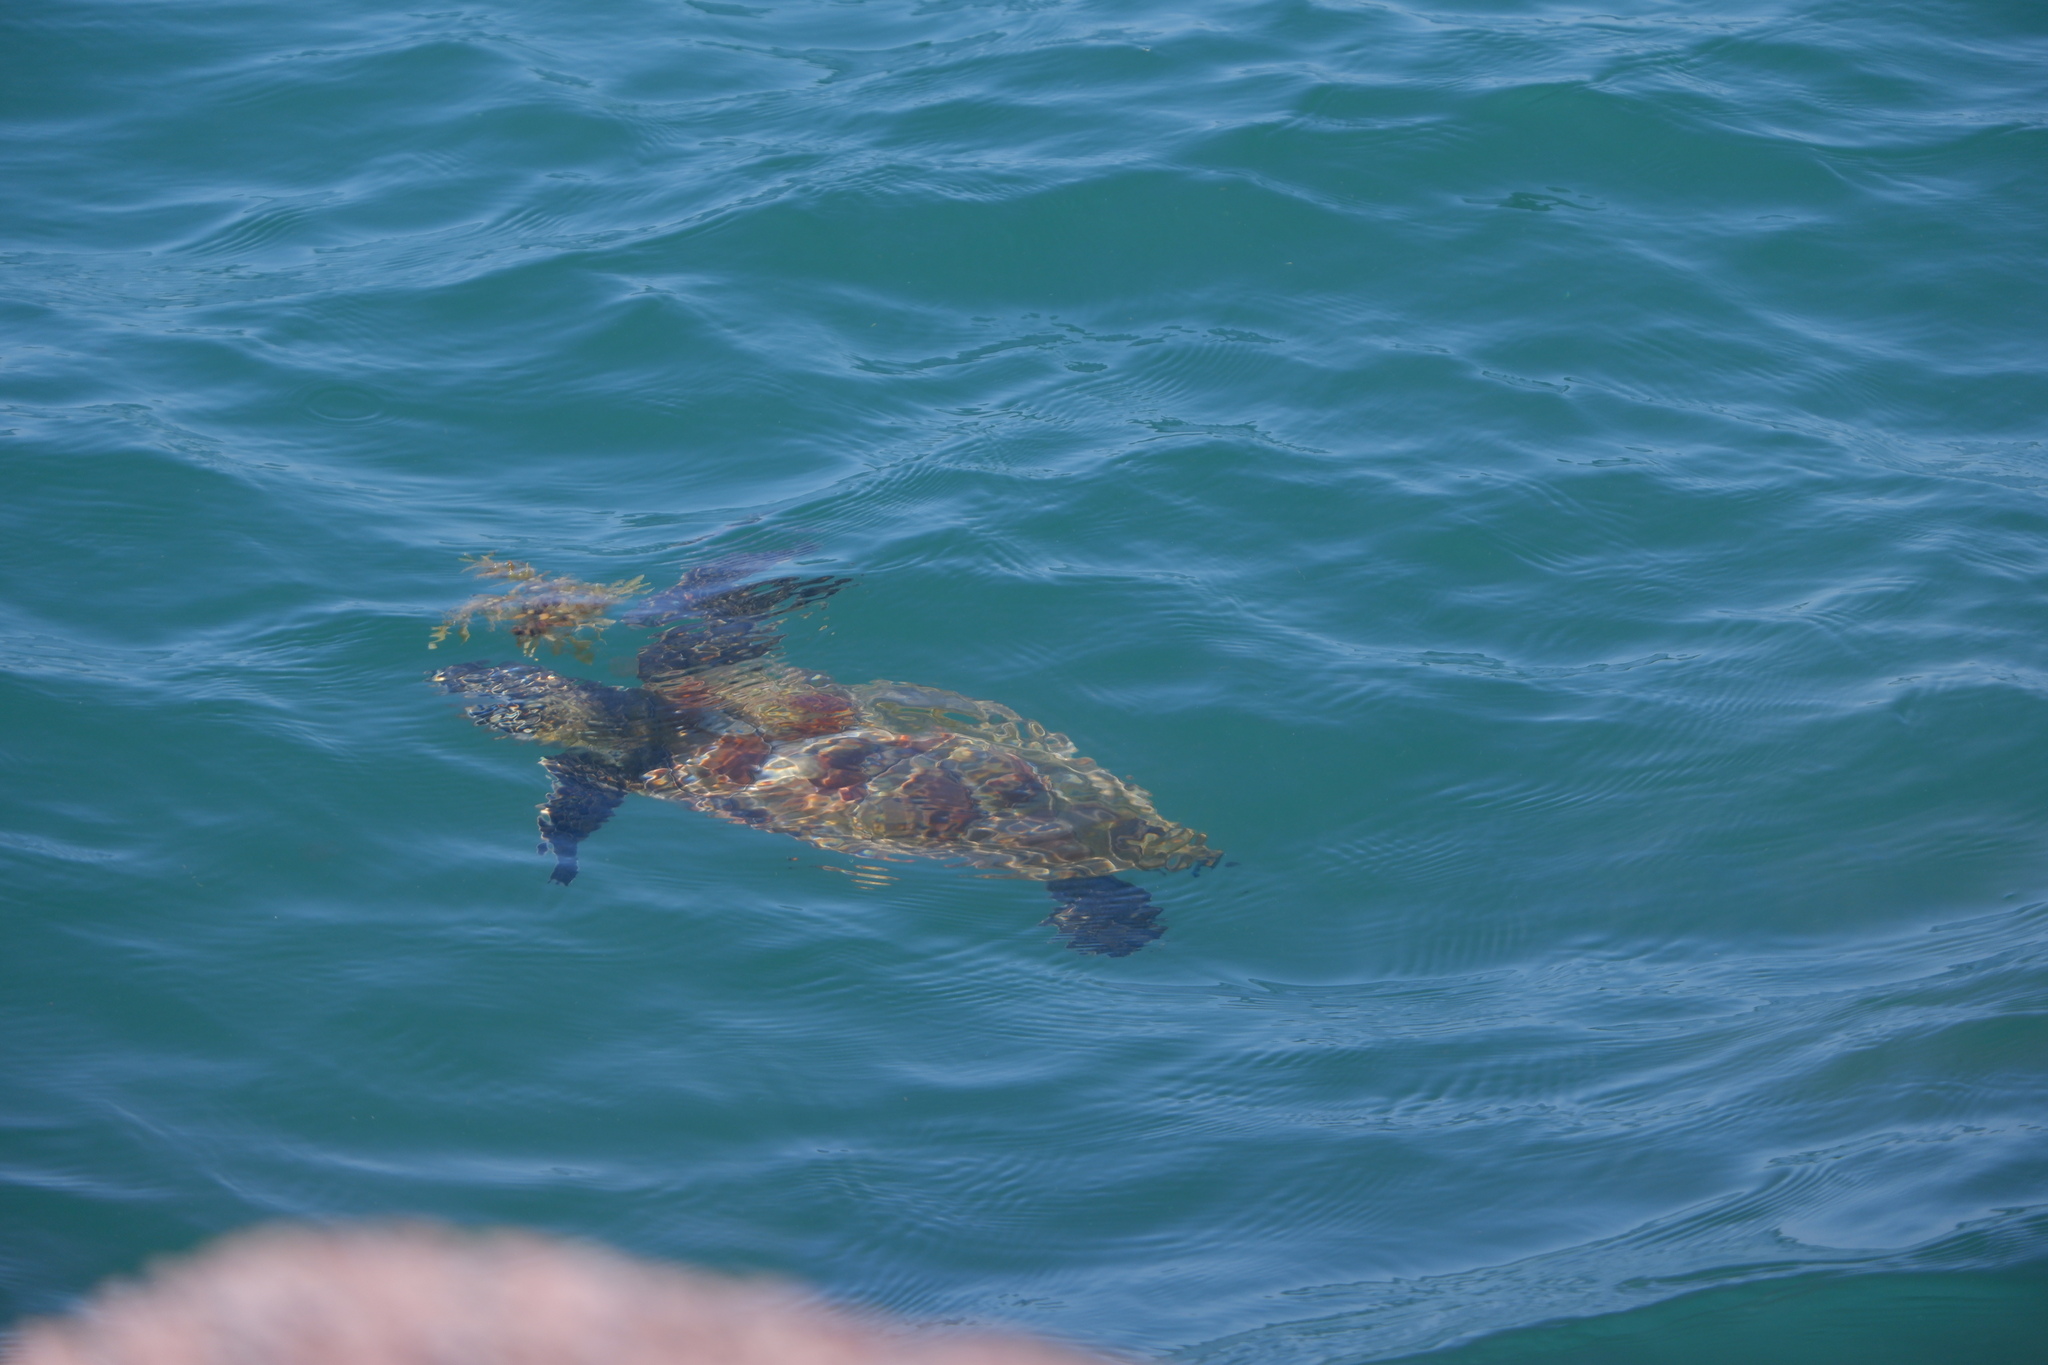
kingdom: Animalia
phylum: Chordata
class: Testudines
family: Cheloniidae
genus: Chelonia
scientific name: Chelonia mydas
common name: Green turtle
